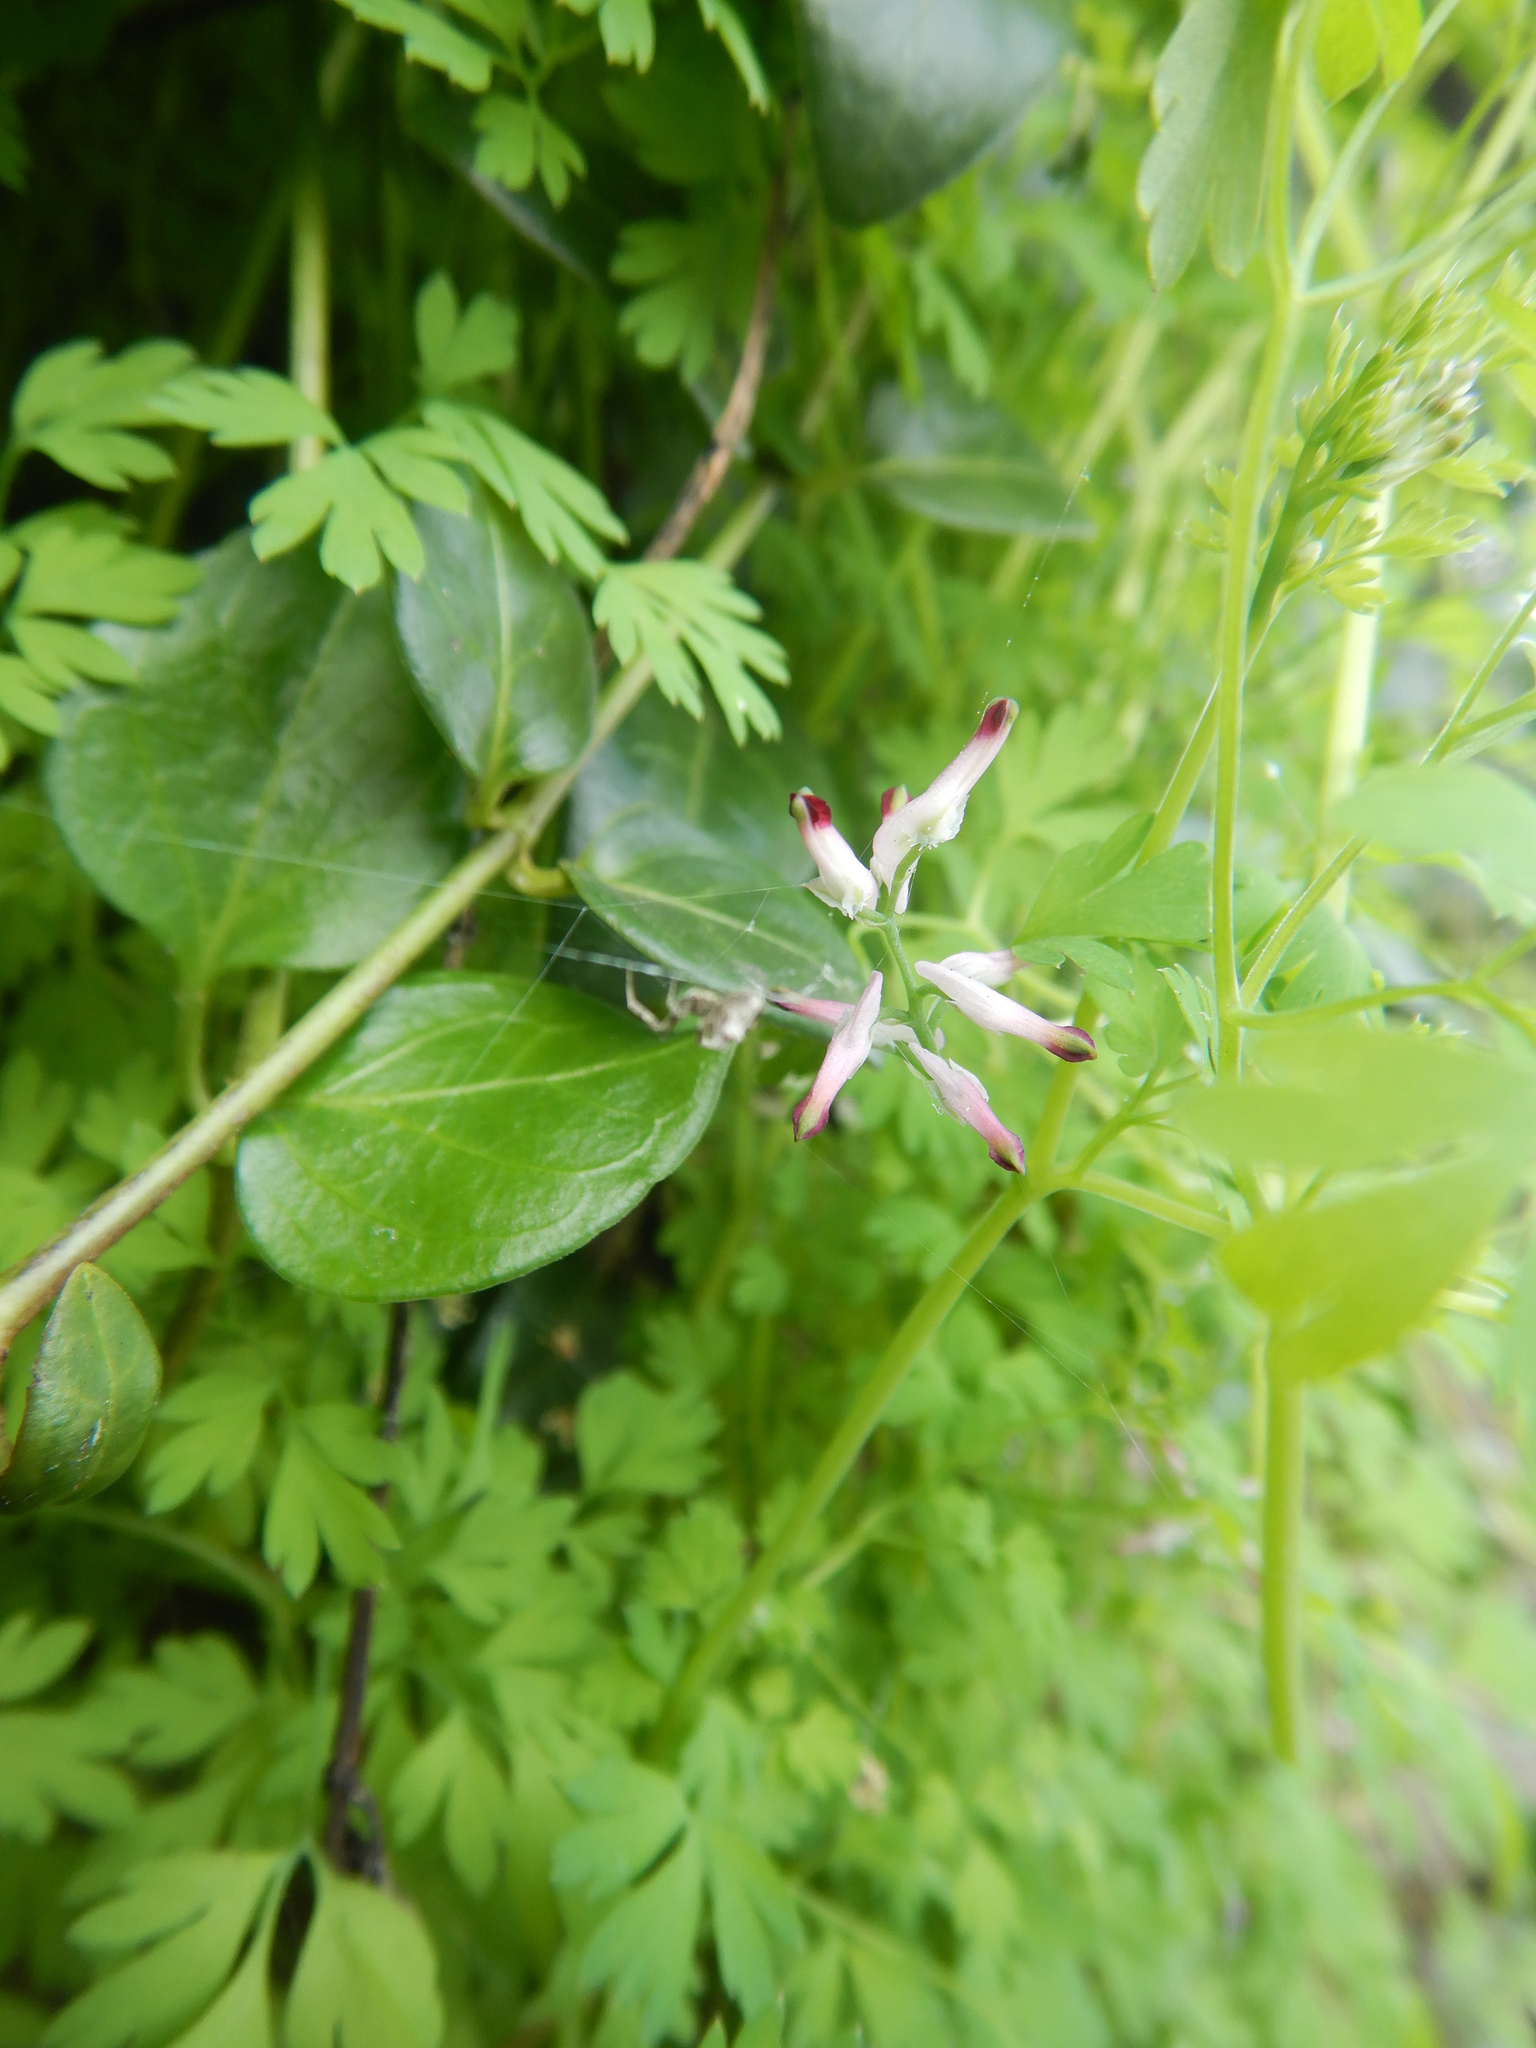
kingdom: Plantae
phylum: Tracheophyta
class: Magnoliopsida
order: Ranunculales
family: Papaveraceae
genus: Fumaria
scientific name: Fumaria muralis
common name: Common ramping-fumitory
